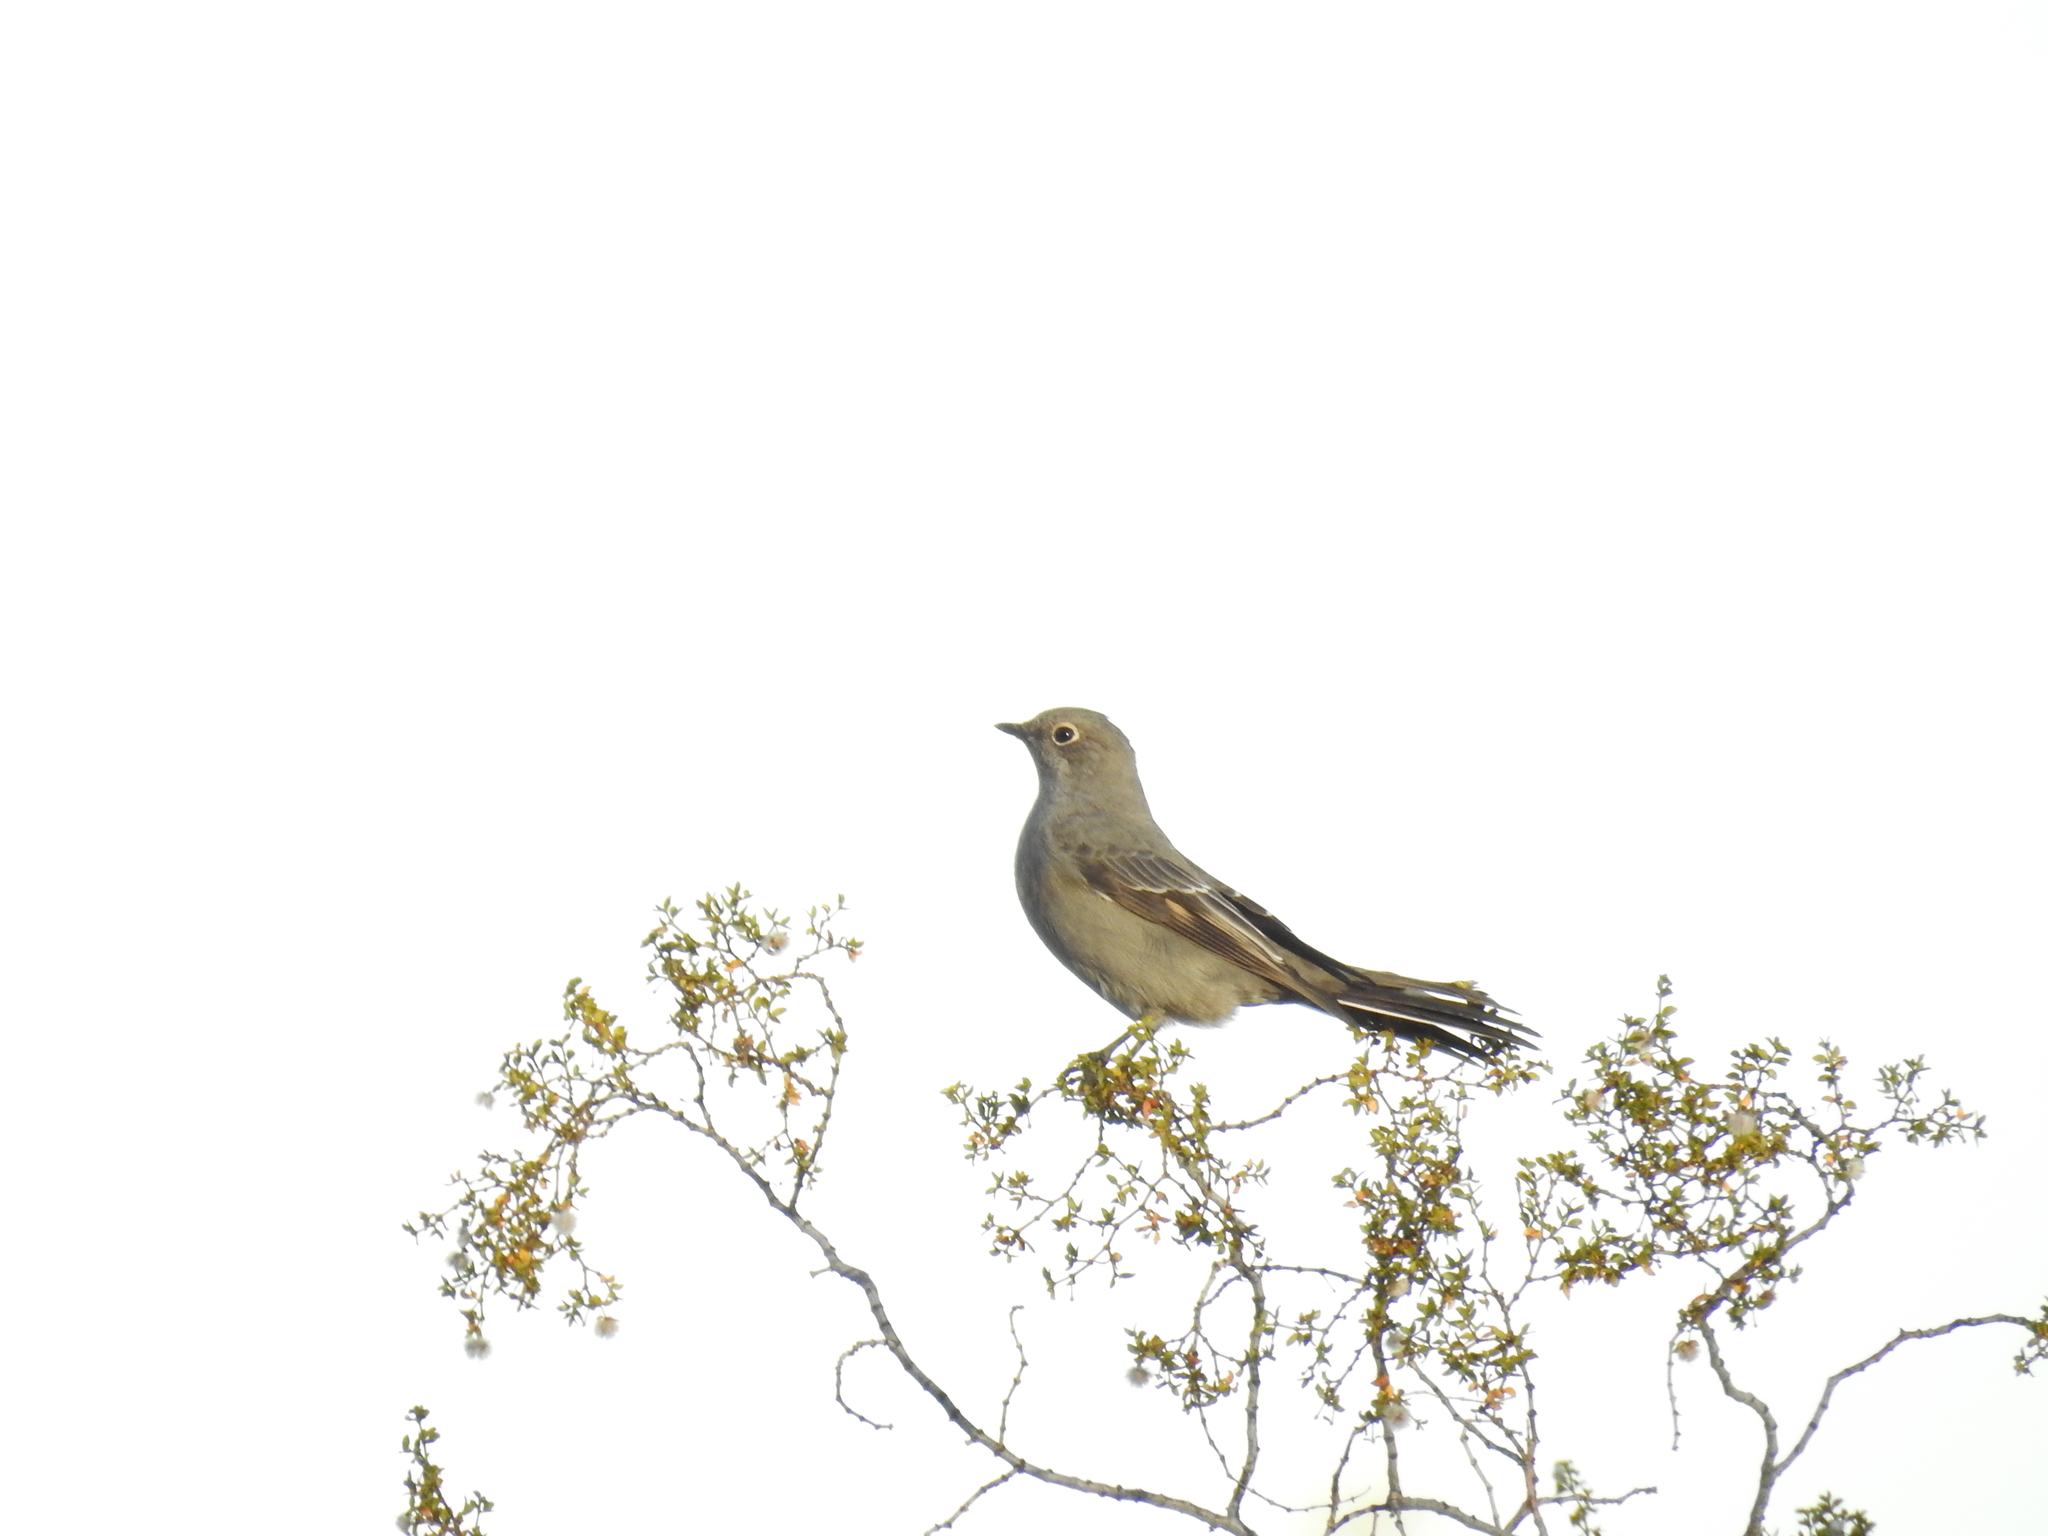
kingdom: Animalia
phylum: Chordata
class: Aves
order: Passeriformes
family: Turdidae
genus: Myadestes
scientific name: Myadestes townsendi
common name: Townsend's solitaire
